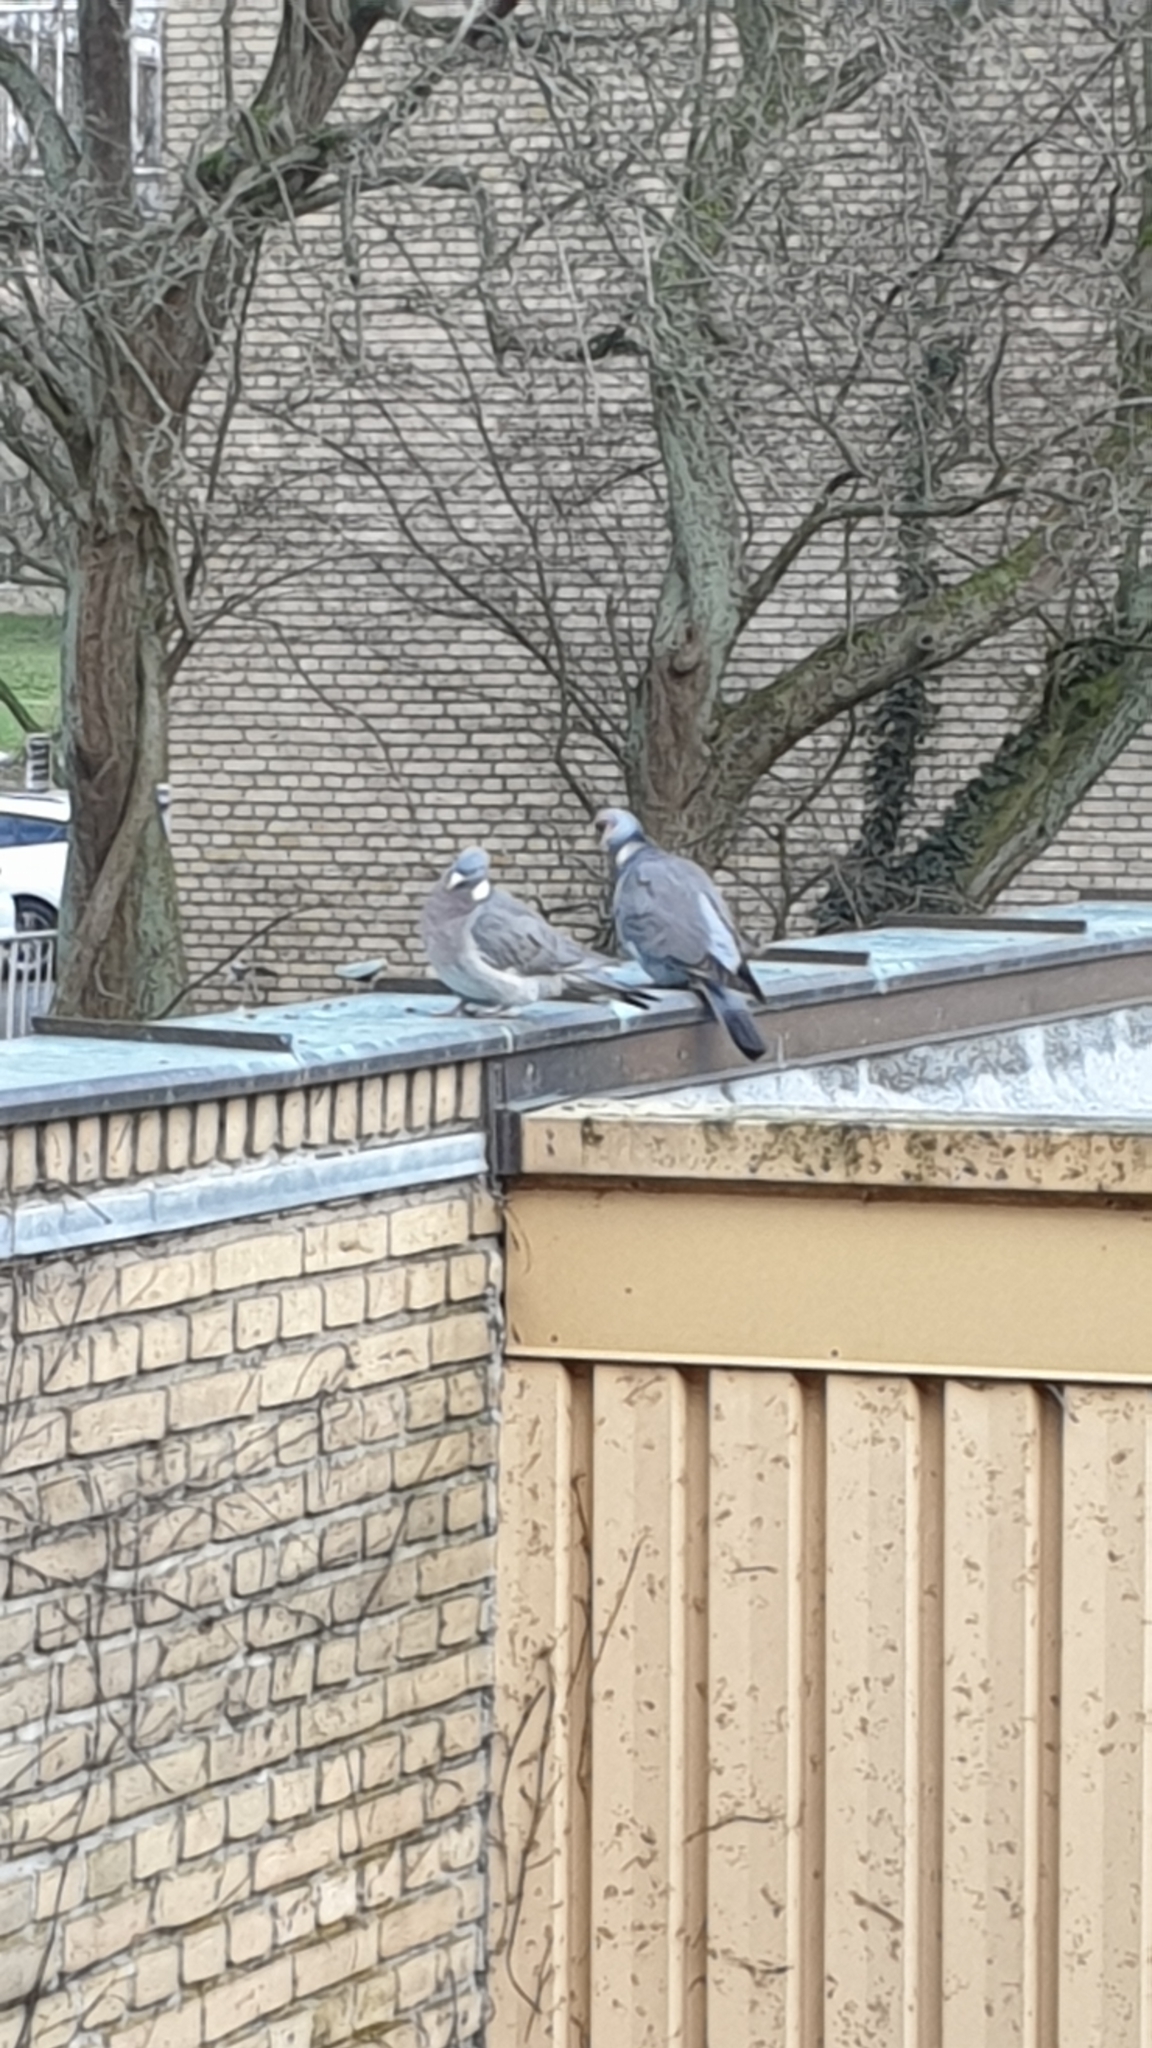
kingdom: Animalia
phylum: Chordata
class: Aves
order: Columbiformes
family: Columbidae
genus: Columba
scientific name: Columba palumbus
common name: Common wood pigeon
